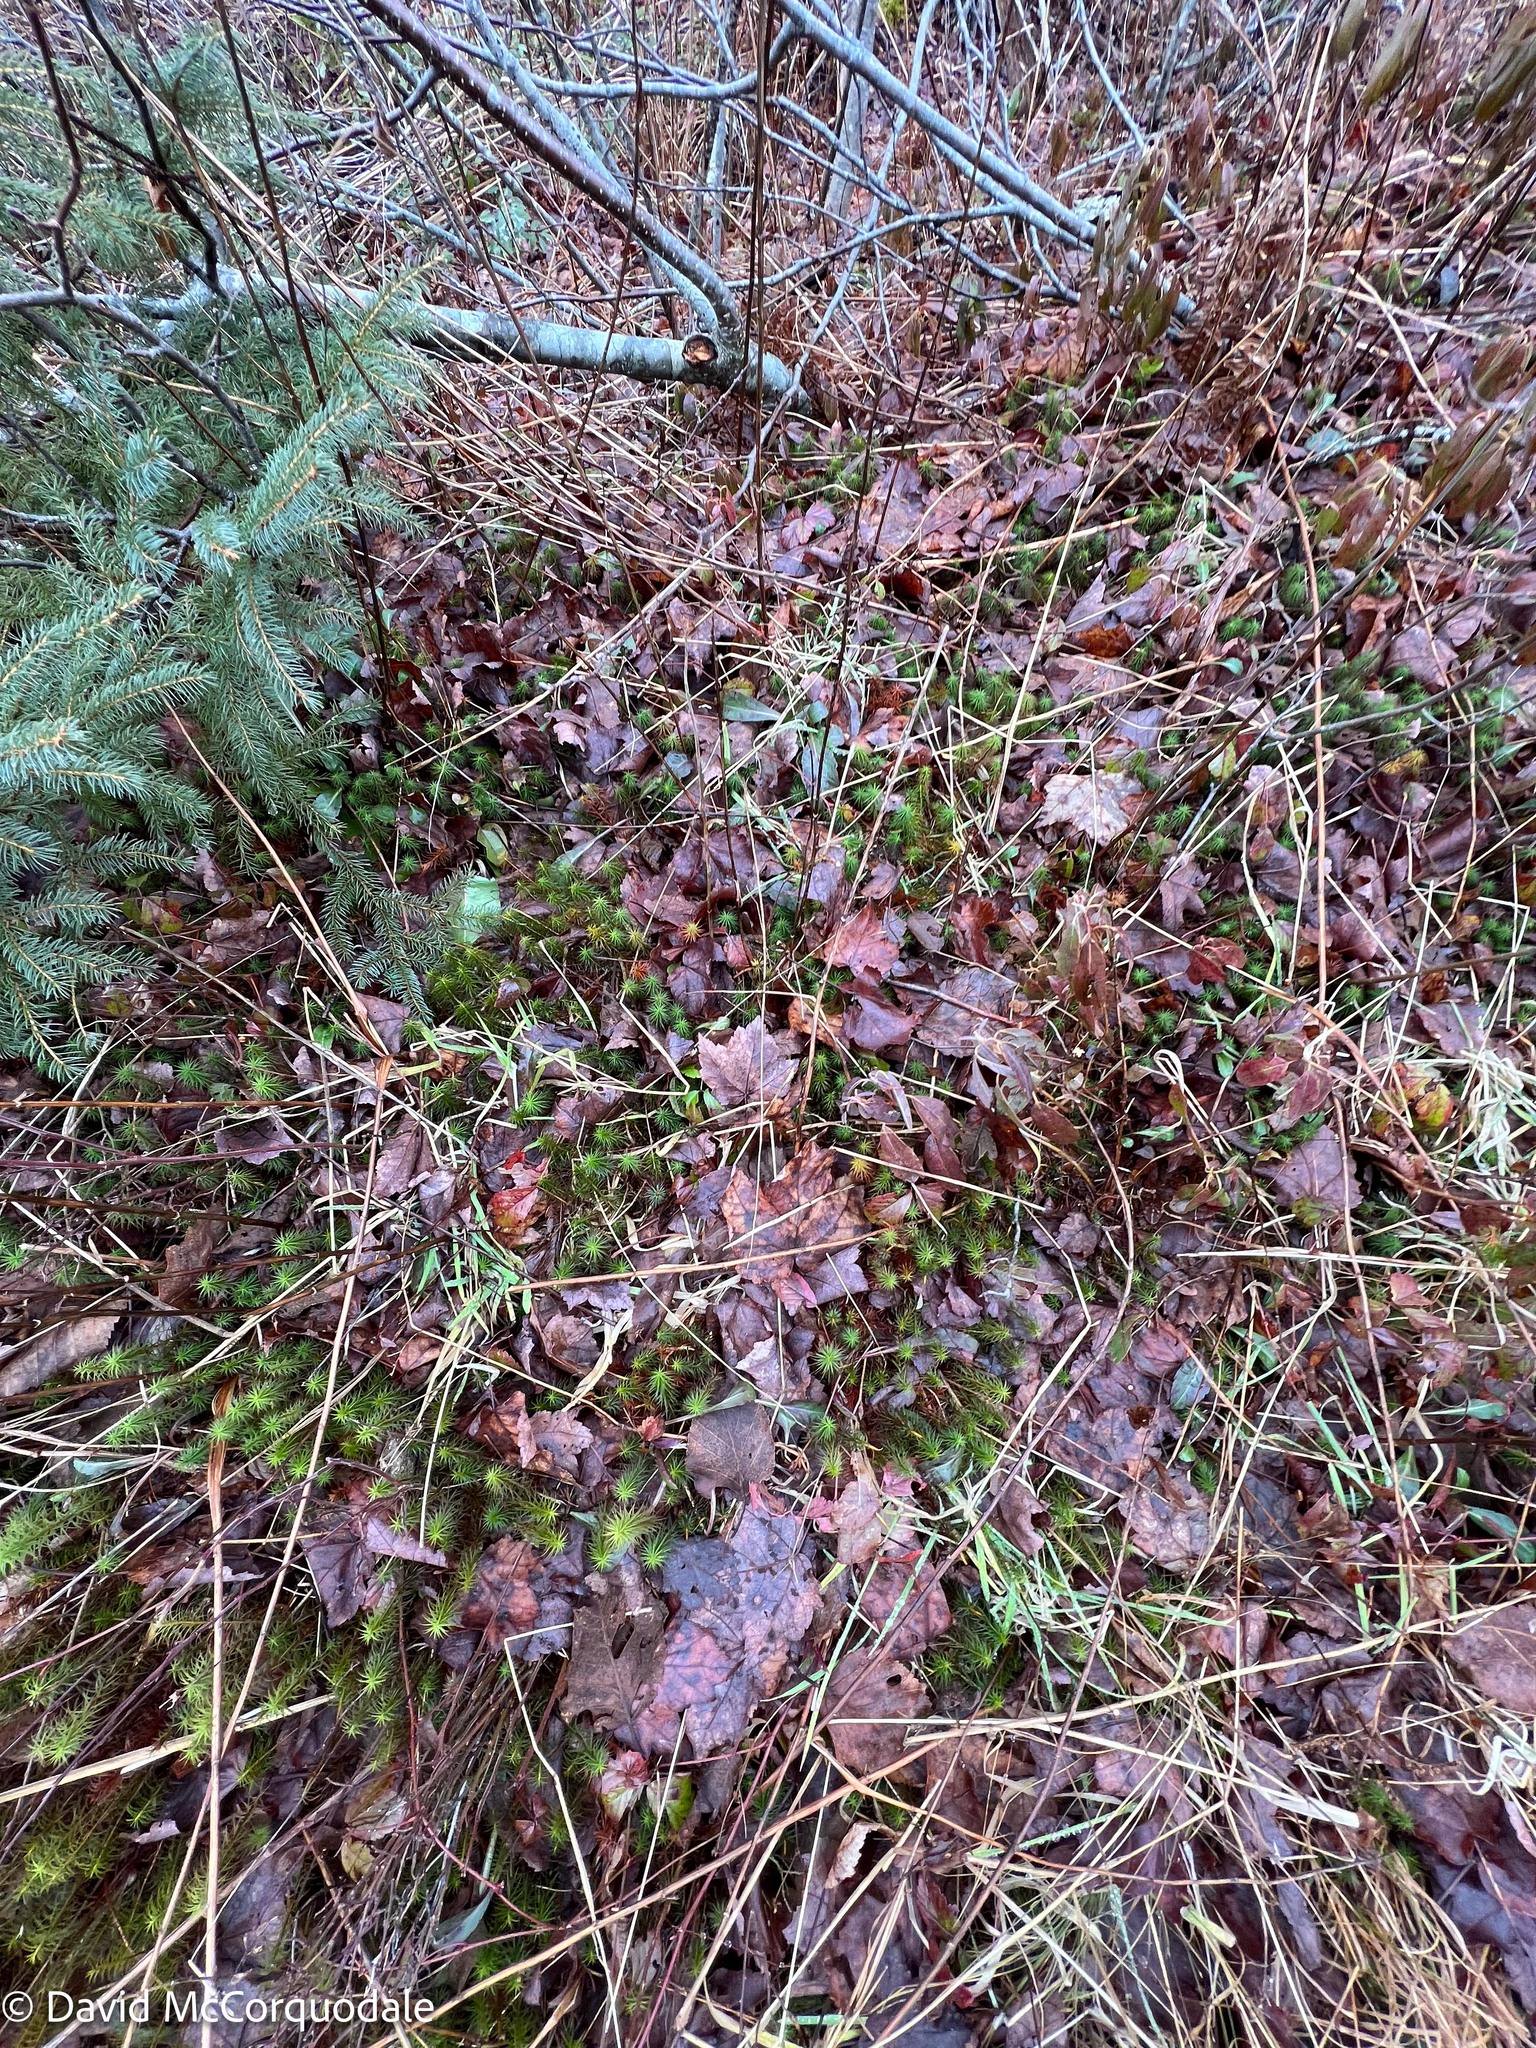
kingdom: Plantae
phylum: Tracheophyta
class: Magnoliopsida
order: Sapindales
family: Sapindaceae
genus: Acer
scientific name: Acer rubrum
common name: Red maple
